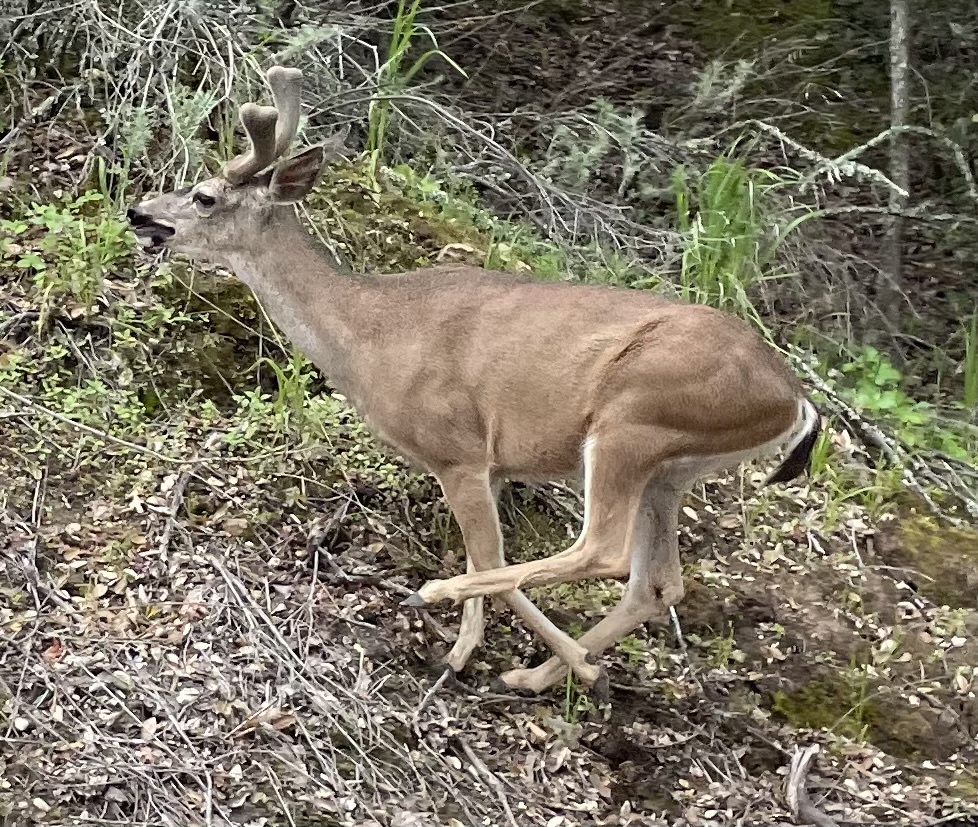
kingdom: Animalia
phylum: Chordata
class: Mammalia
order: Artiodactyla
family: Cervidae
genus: Odocoileus
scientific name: Odocoileus hemionus
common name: Mule deer
